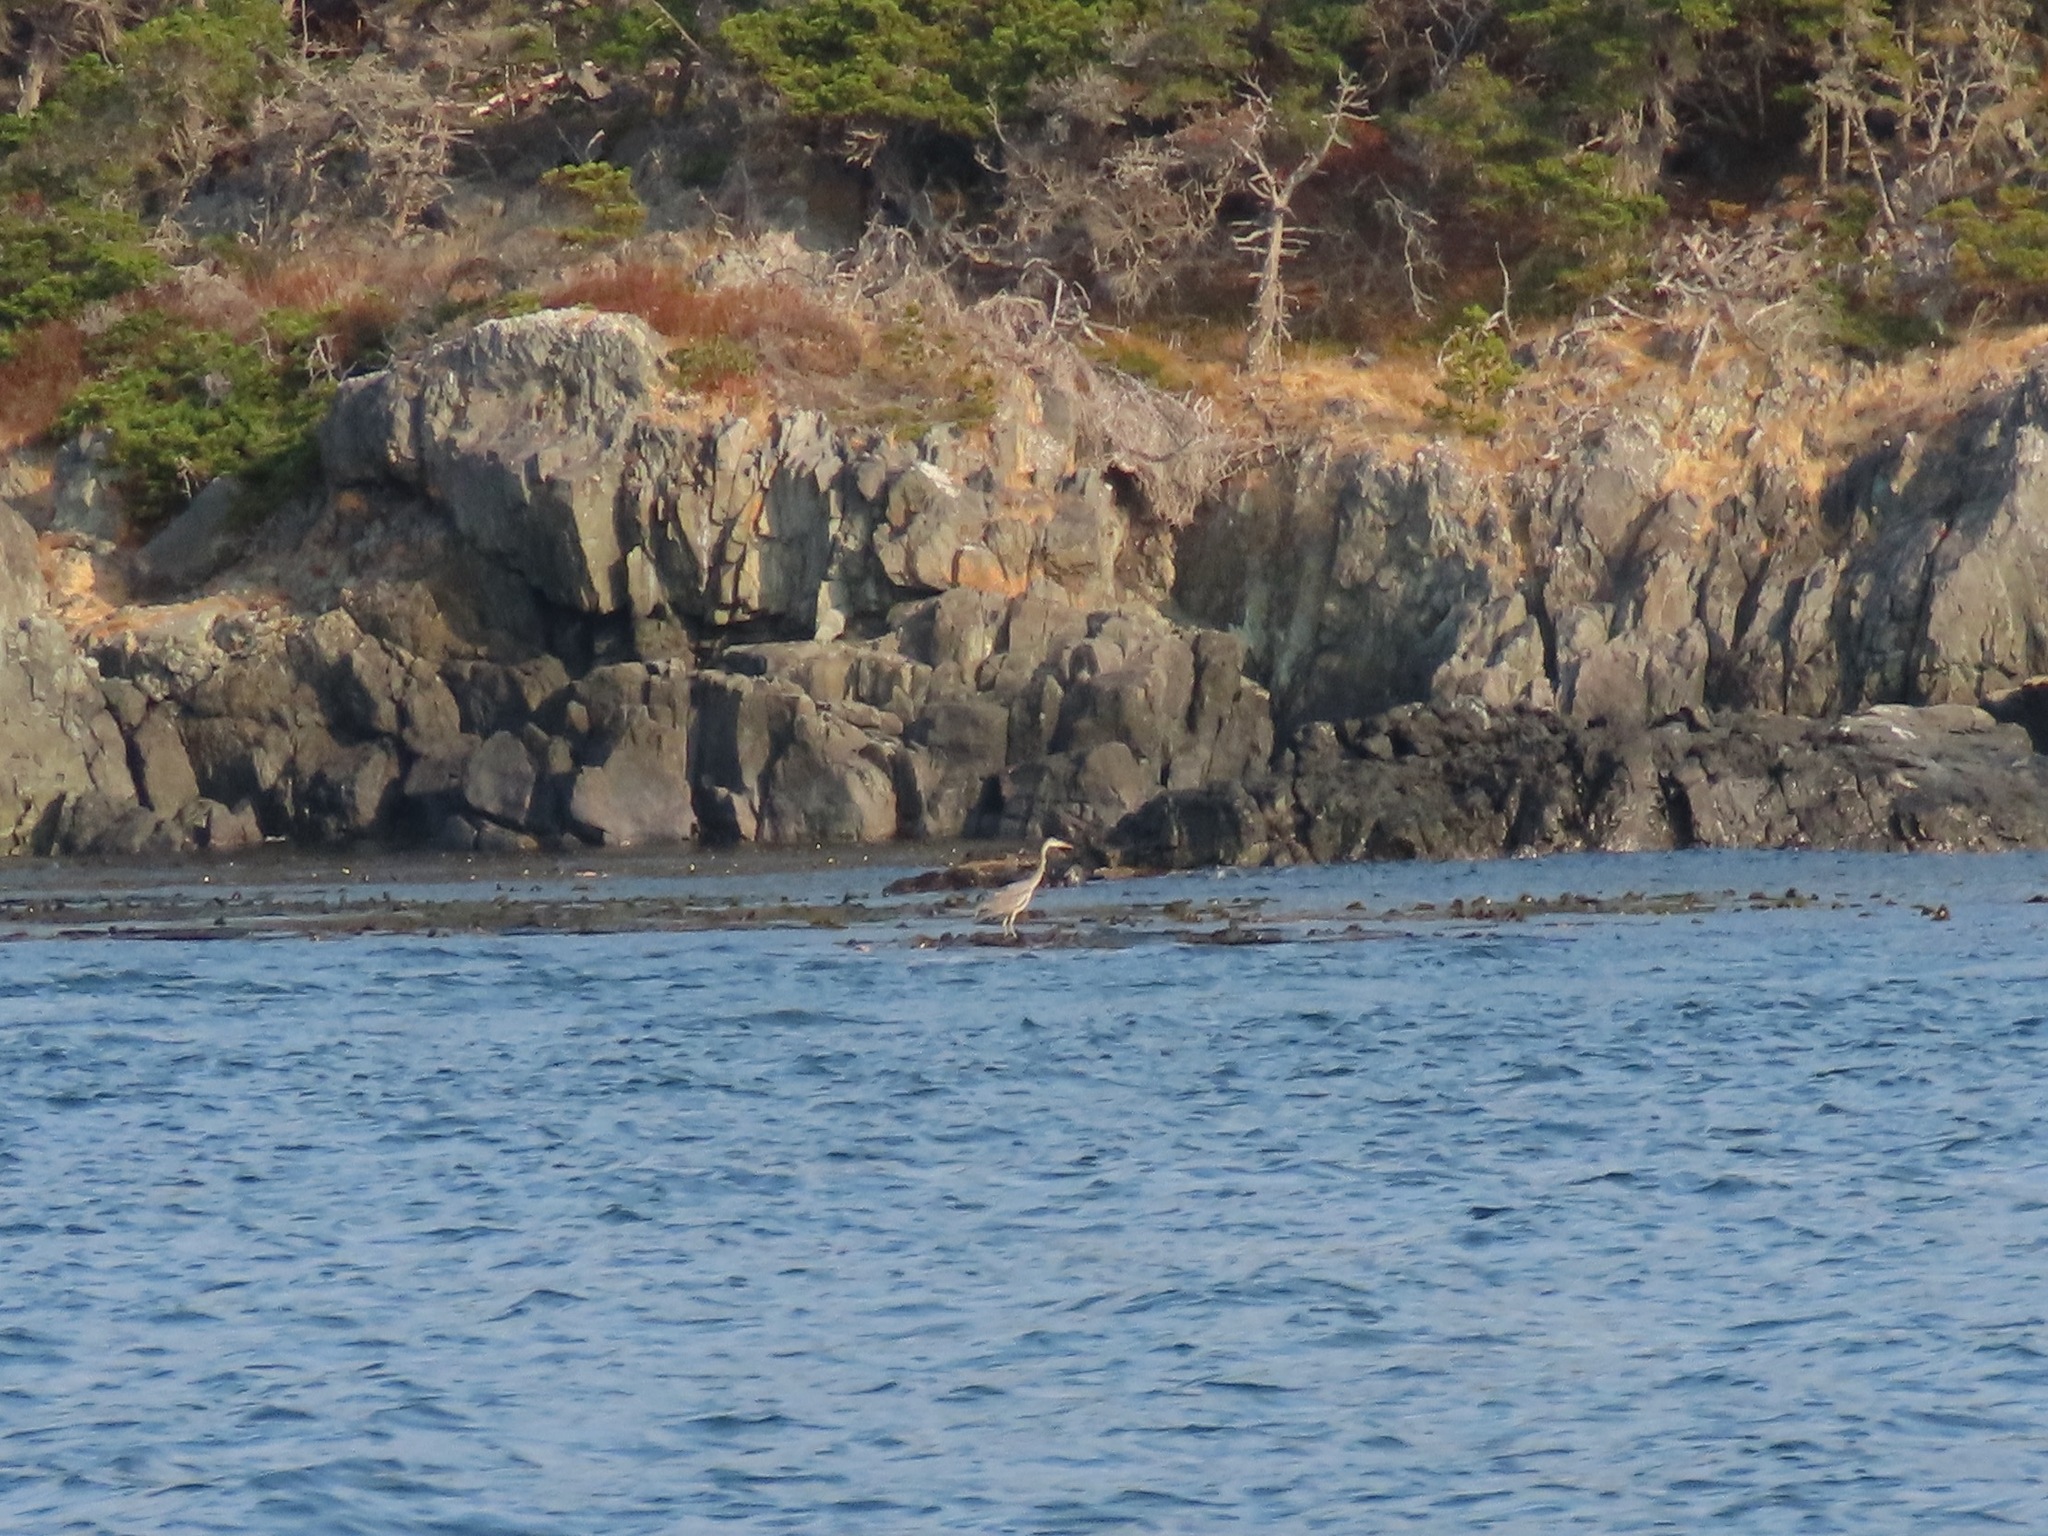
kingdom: Animalia
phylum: Chordata
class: Aves
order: Pelecaniformes
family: Ardeidae
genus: Ardea
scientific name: Ardea herodias
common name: Great blue heron
